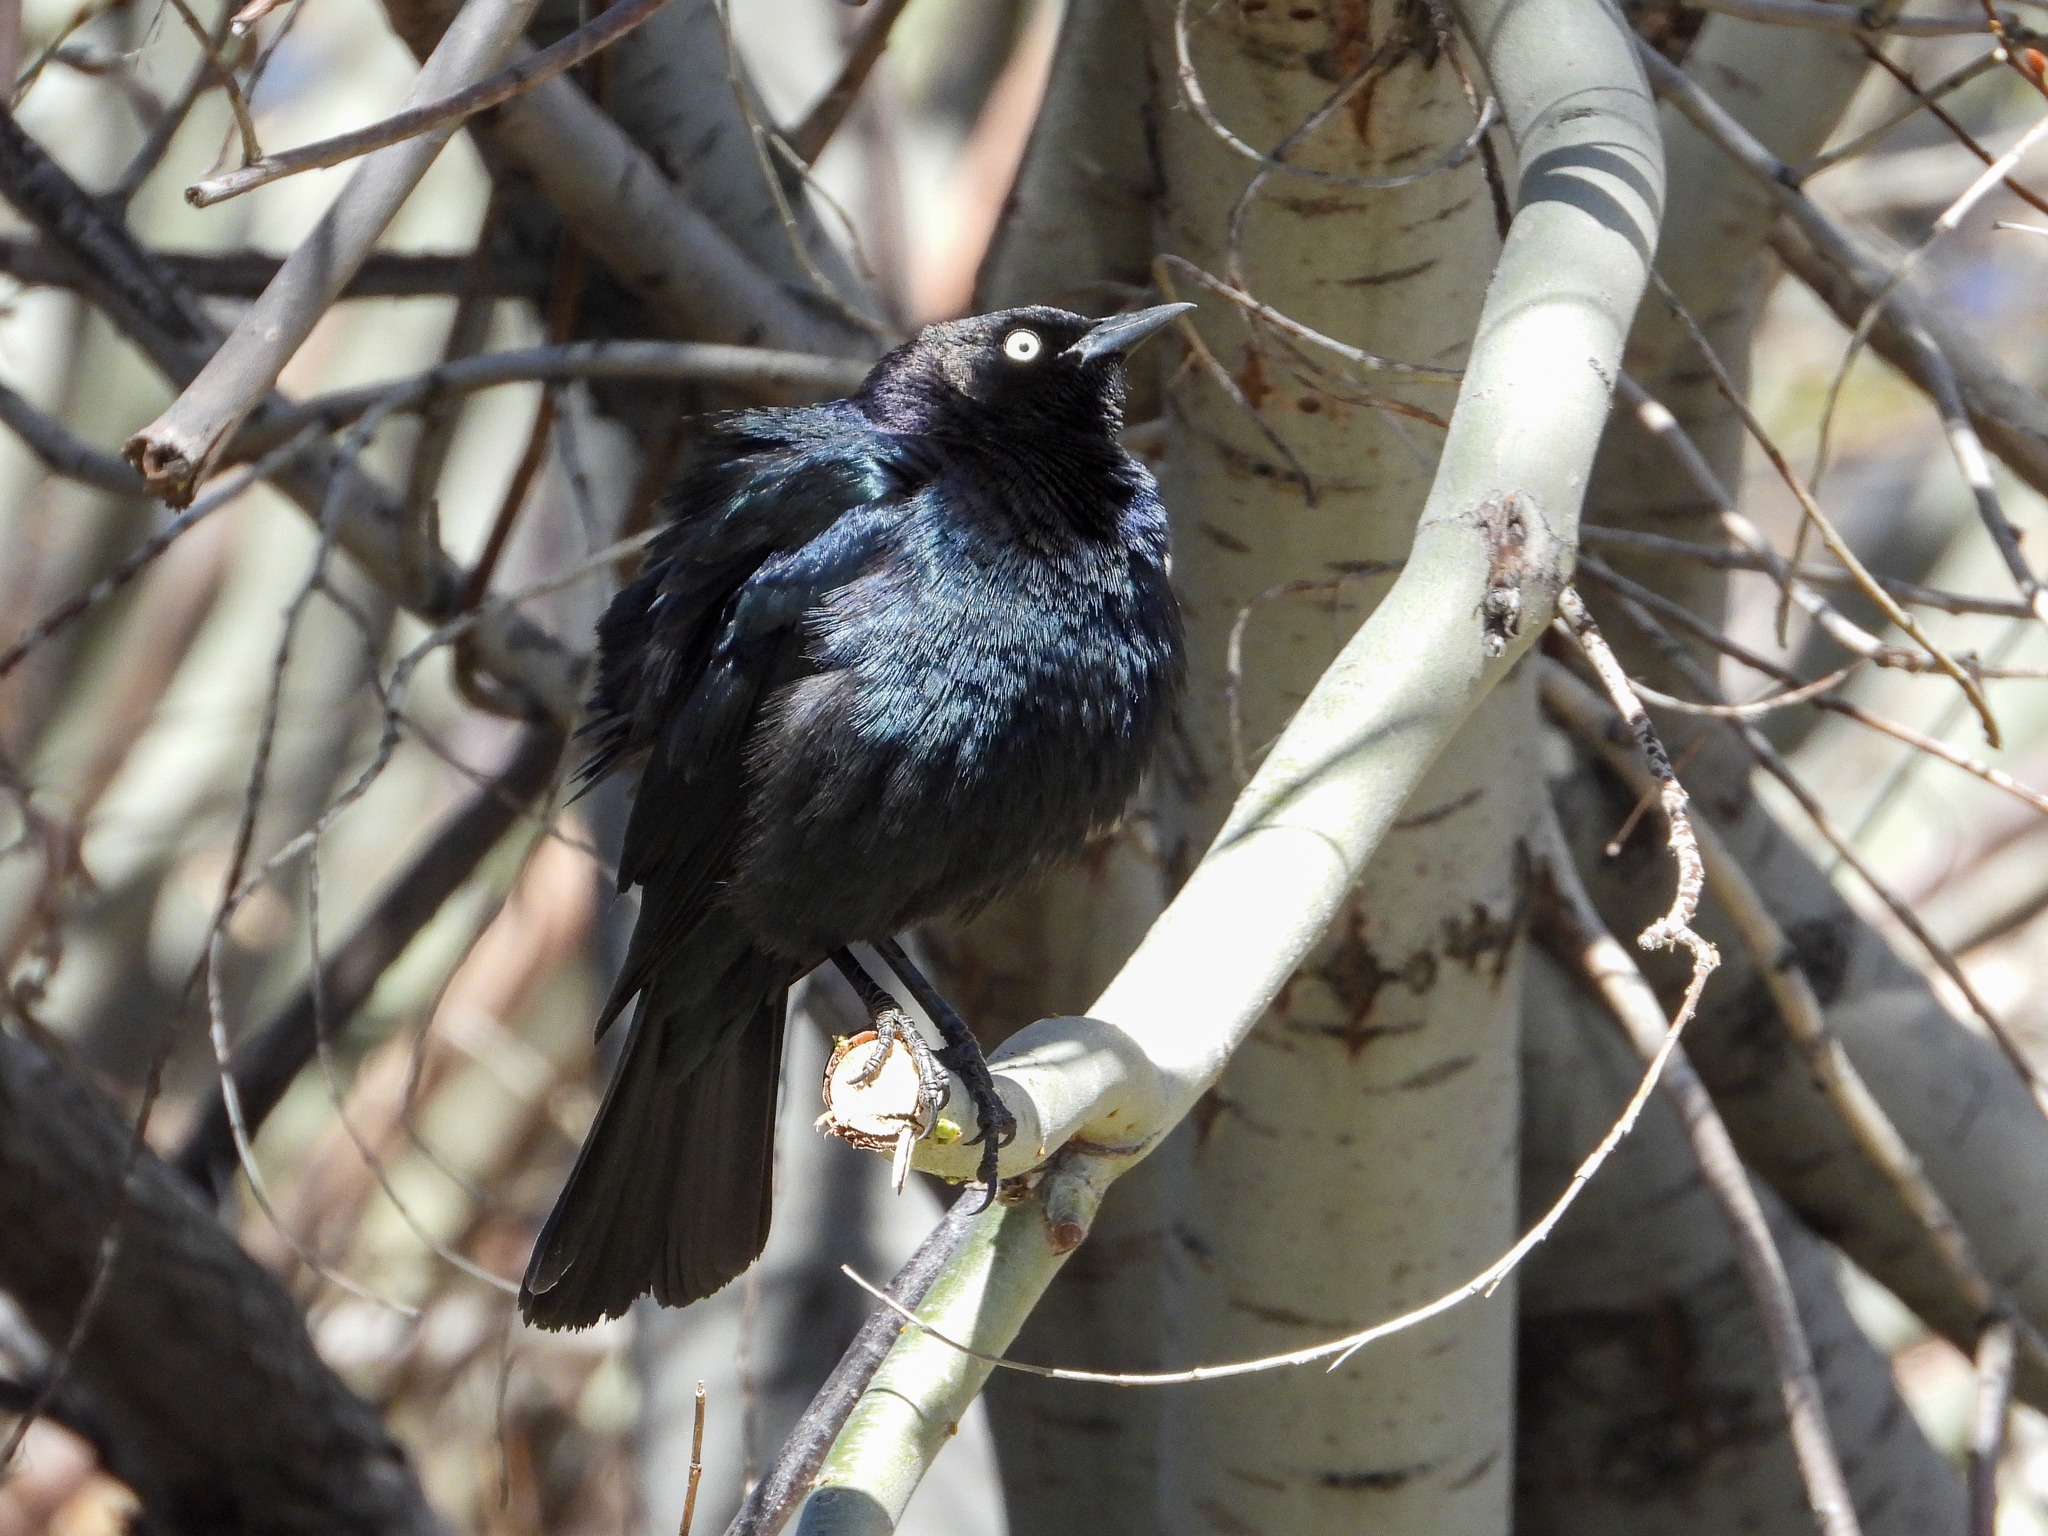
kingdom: Animalia
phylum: Chordata
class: Aves
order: Passeriformes
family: Icteridae
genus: Euphagus
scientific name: Euphagus cyanocephalus
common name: Brewer's blackbird
